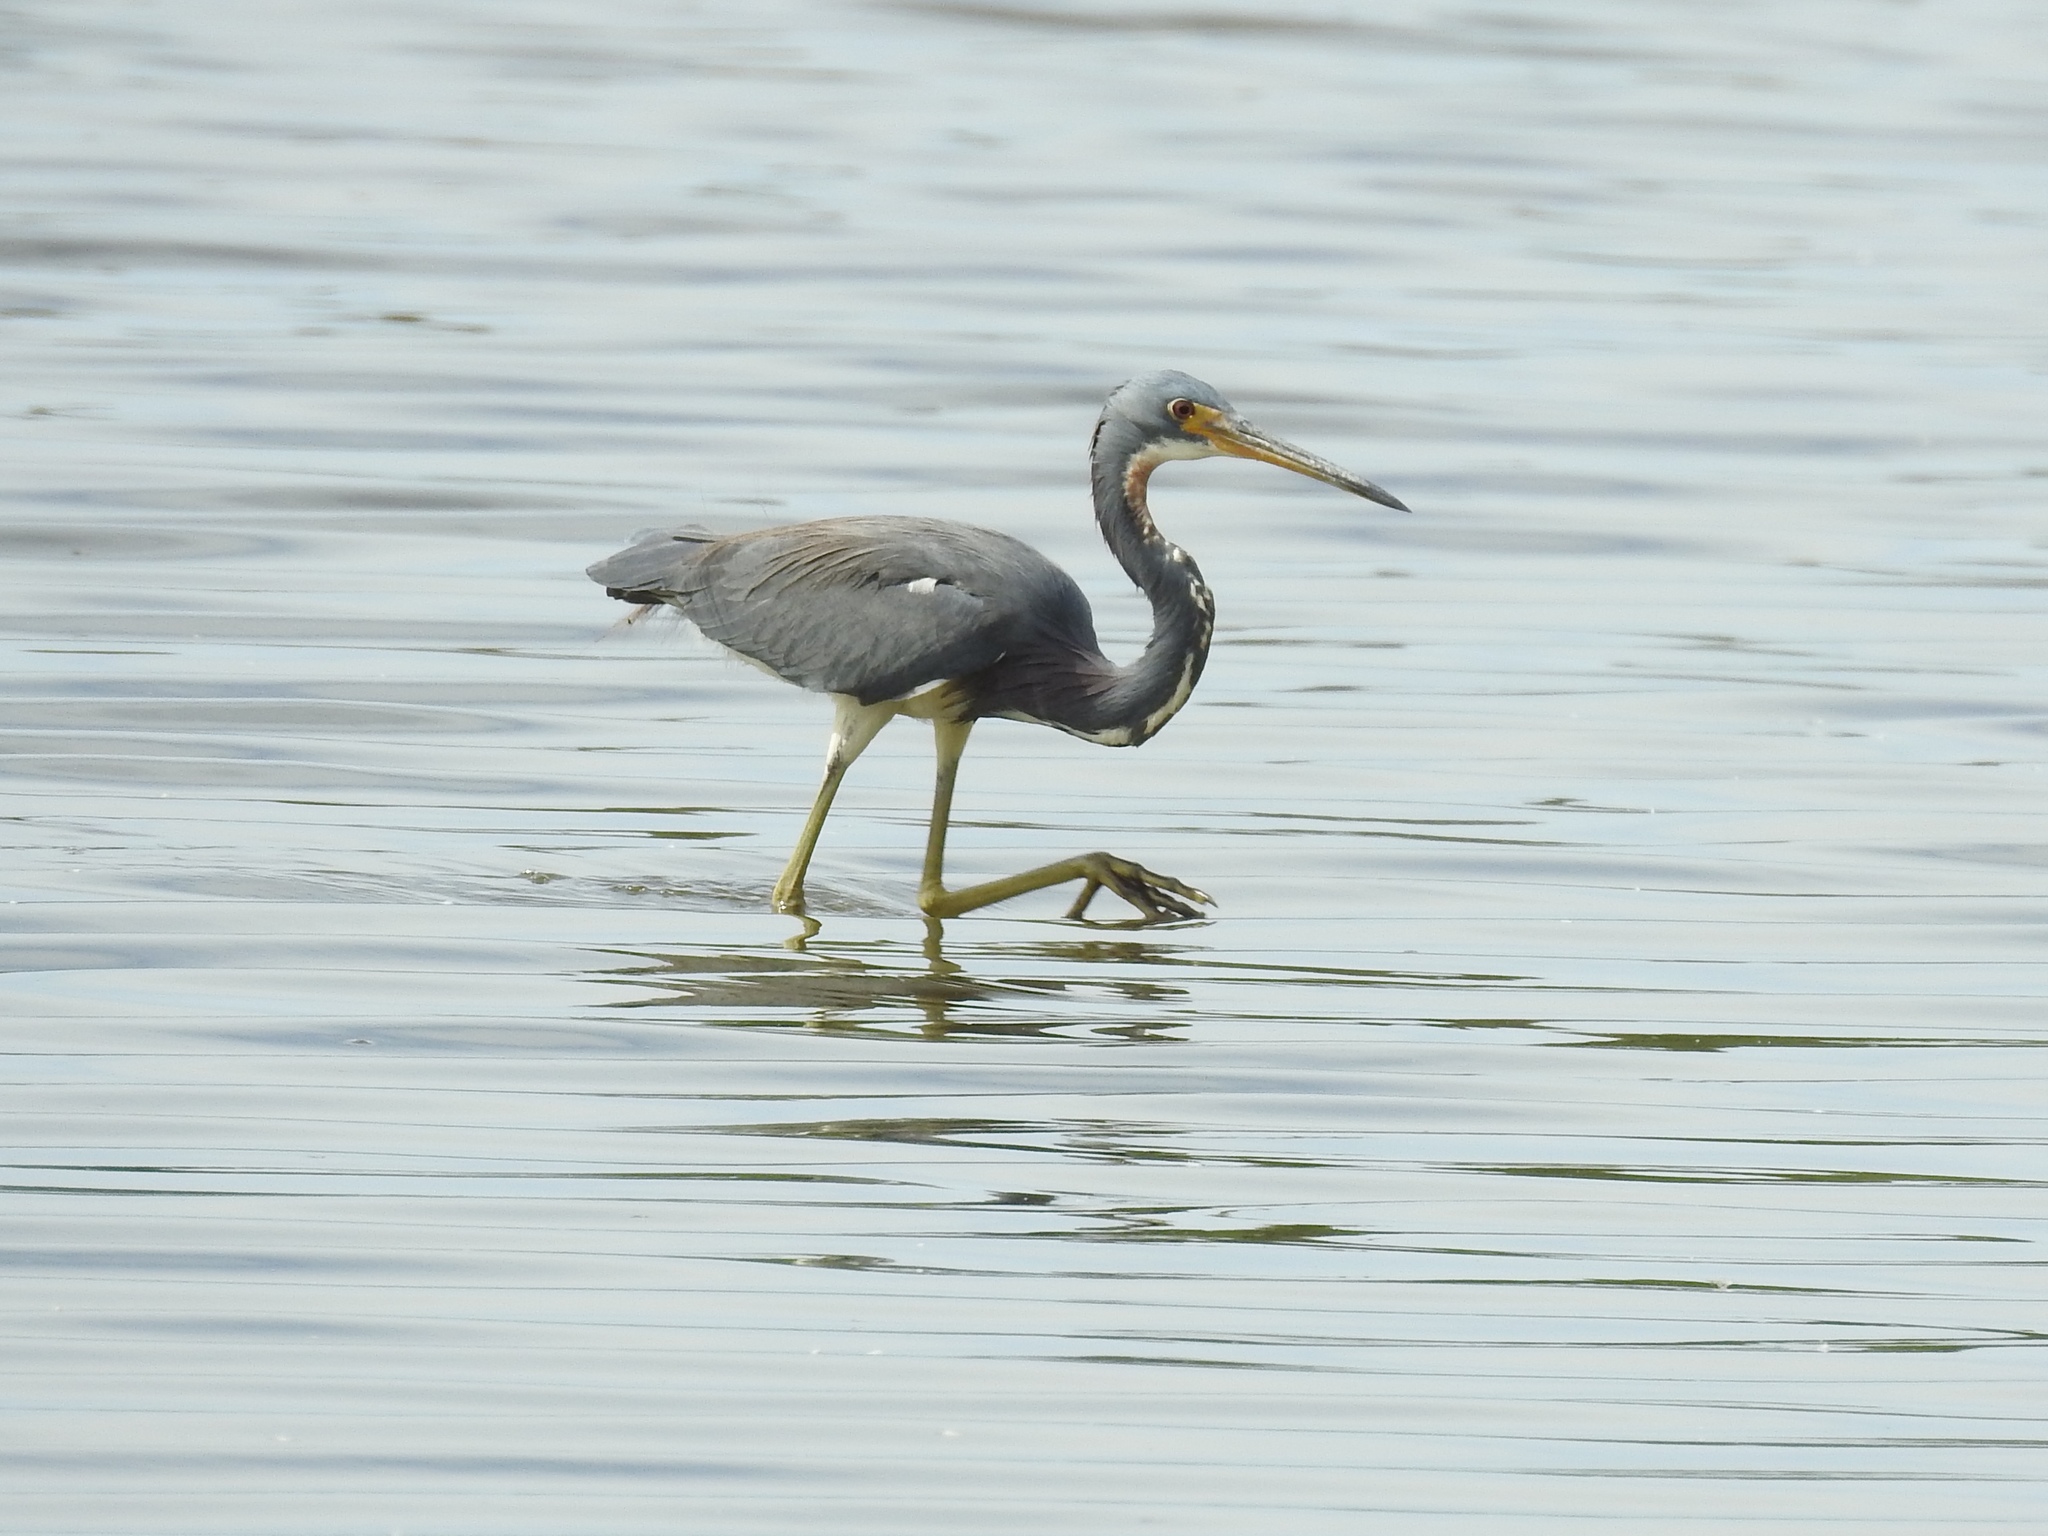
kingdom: Animalia
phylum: Chordata
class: Aves
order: Pelecaniformes
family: Ardeidae
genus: Egretta
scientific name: Egretta tricolor
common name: Tricolored heron
